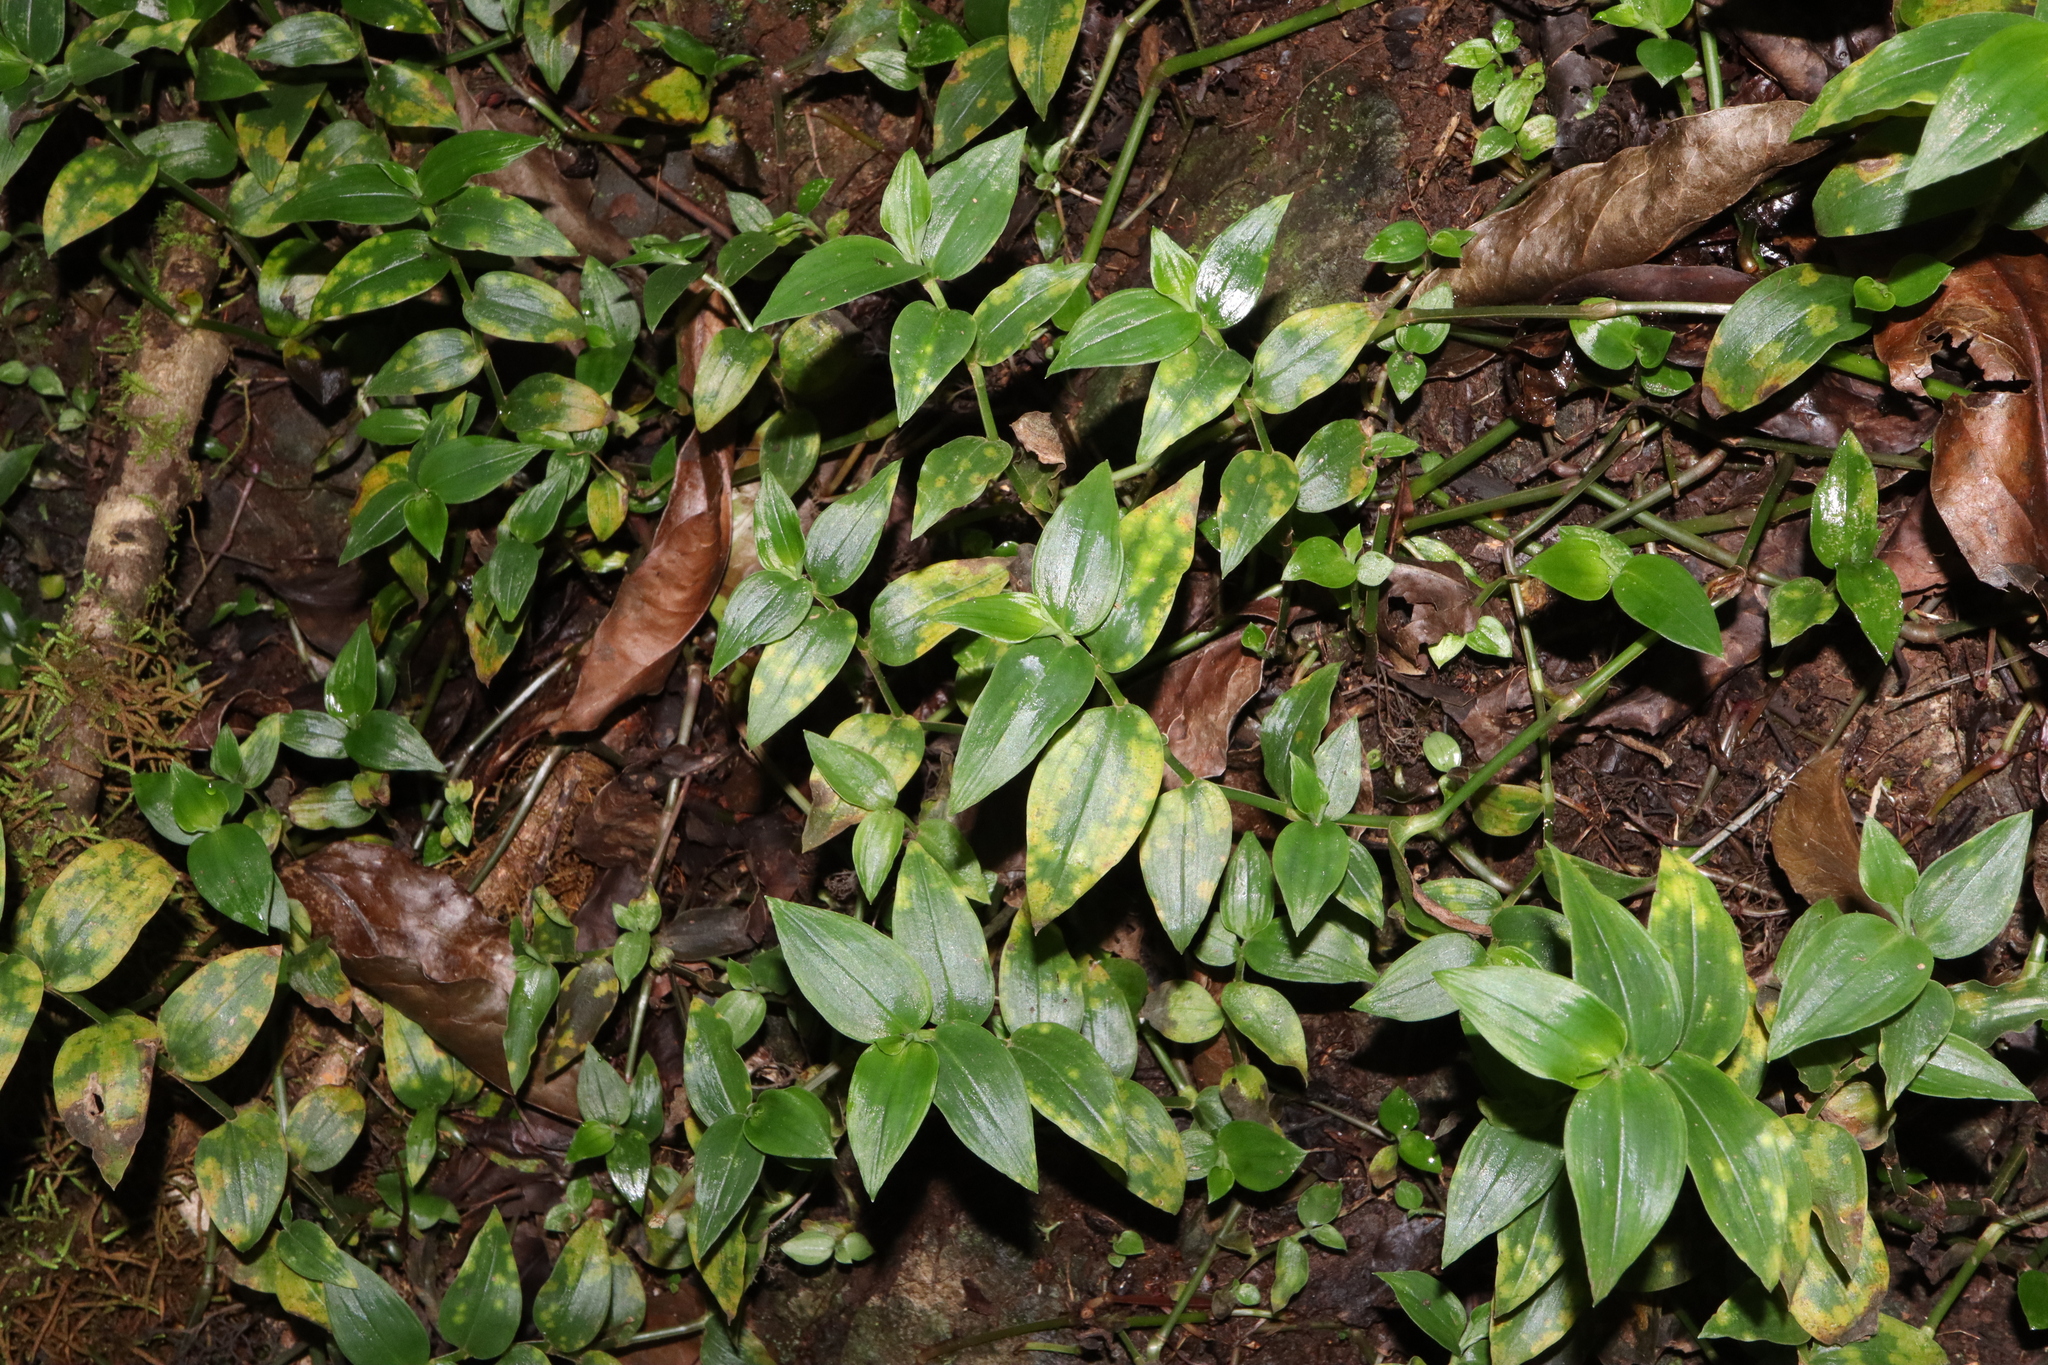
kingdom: Plantae
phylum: Tracheophyta
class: Liliopsida
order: Commelinales
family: Commelinaceae
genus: Tradescantia
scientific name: Tradescantia fluminensis
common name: Wandering-jew
